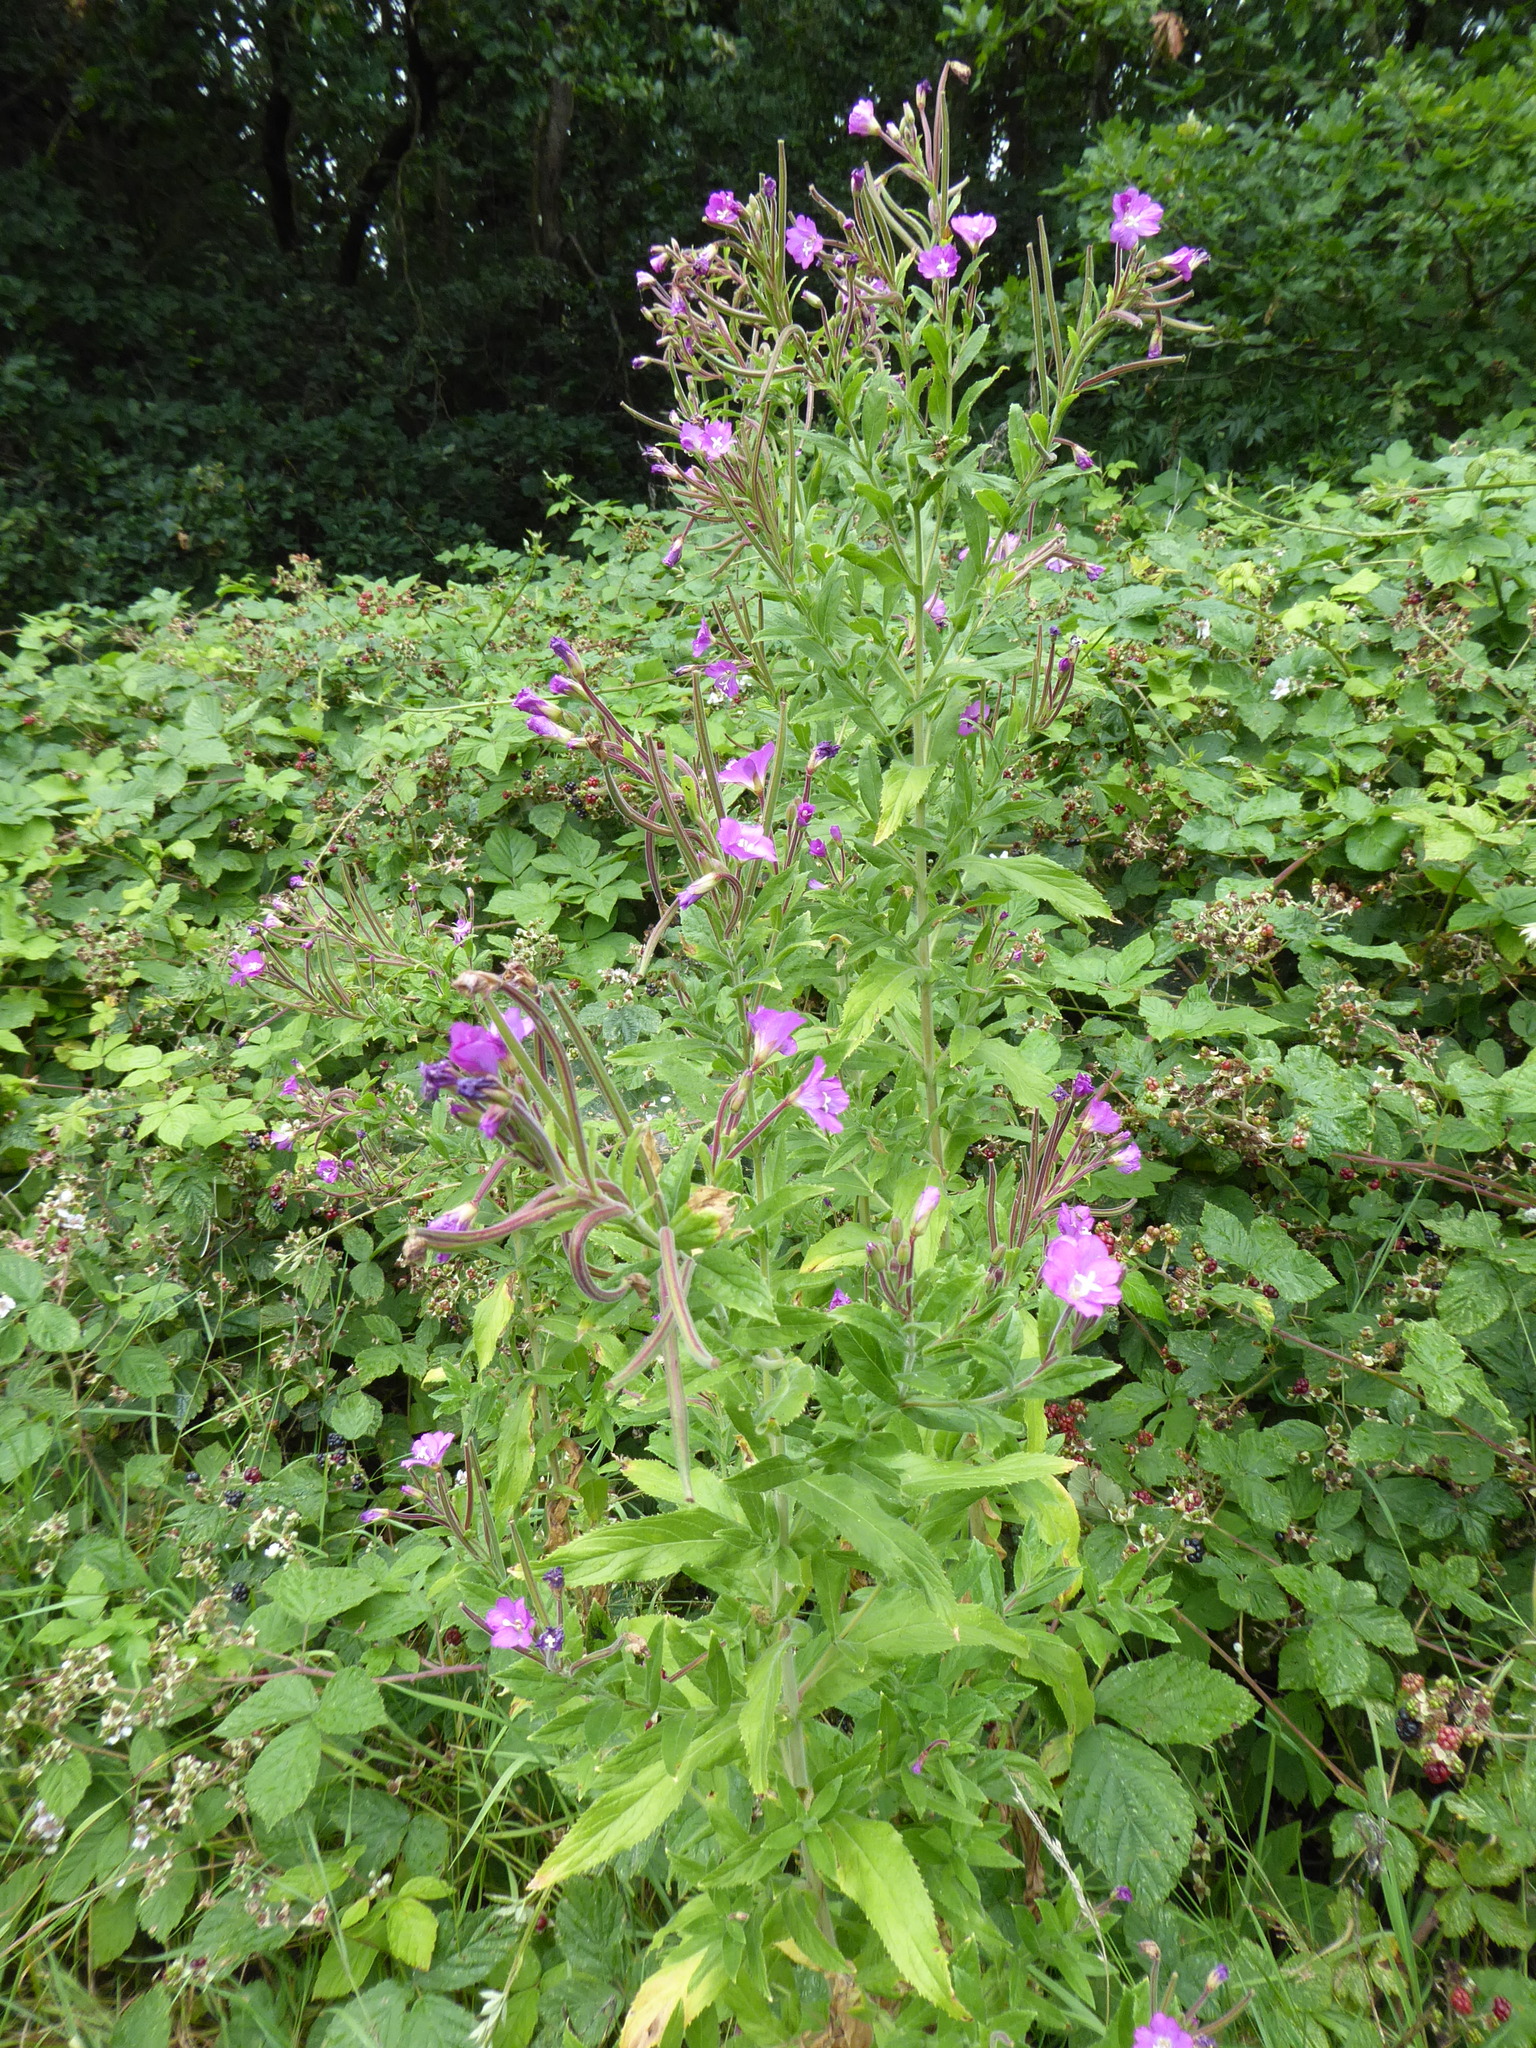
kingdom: Plantae
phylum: Tracheophyta
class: Magnoliopsida
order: Myrtales
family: Onagraceae
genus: Epilobium
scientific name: Epilobium hirsutum
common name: Great willowherb
